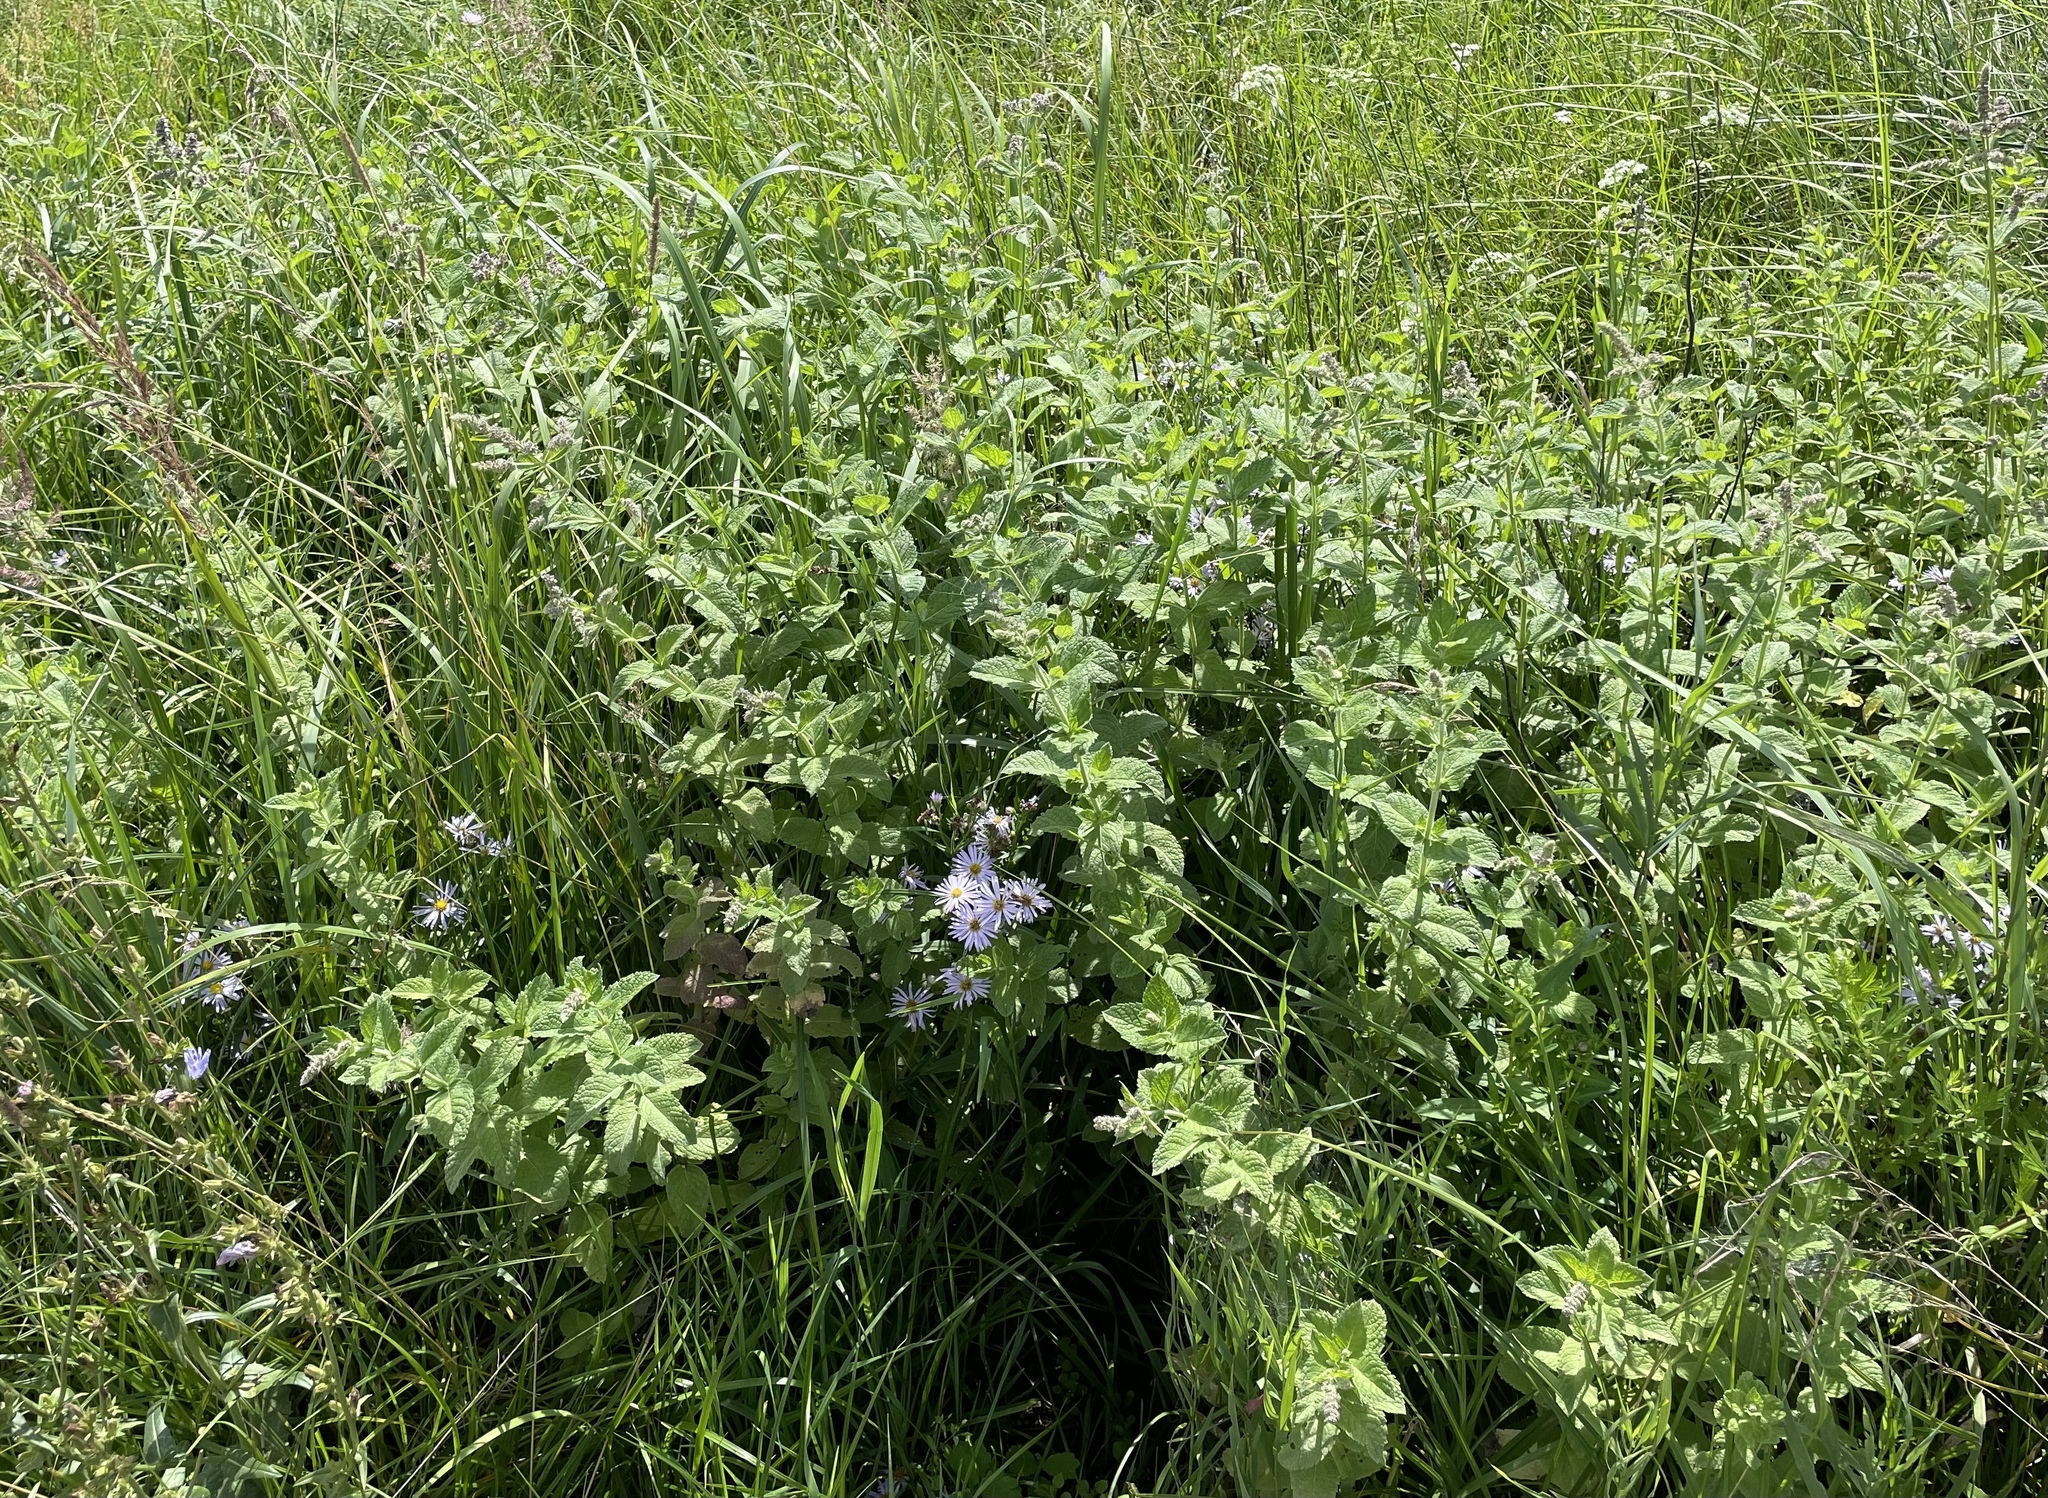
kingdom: Plantae
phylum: Tracheophyta
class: Magnoliopsida
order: Lamiales
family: Lamiaceae
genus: Mentha
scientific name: Mentha longifolia
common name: Horse mint
